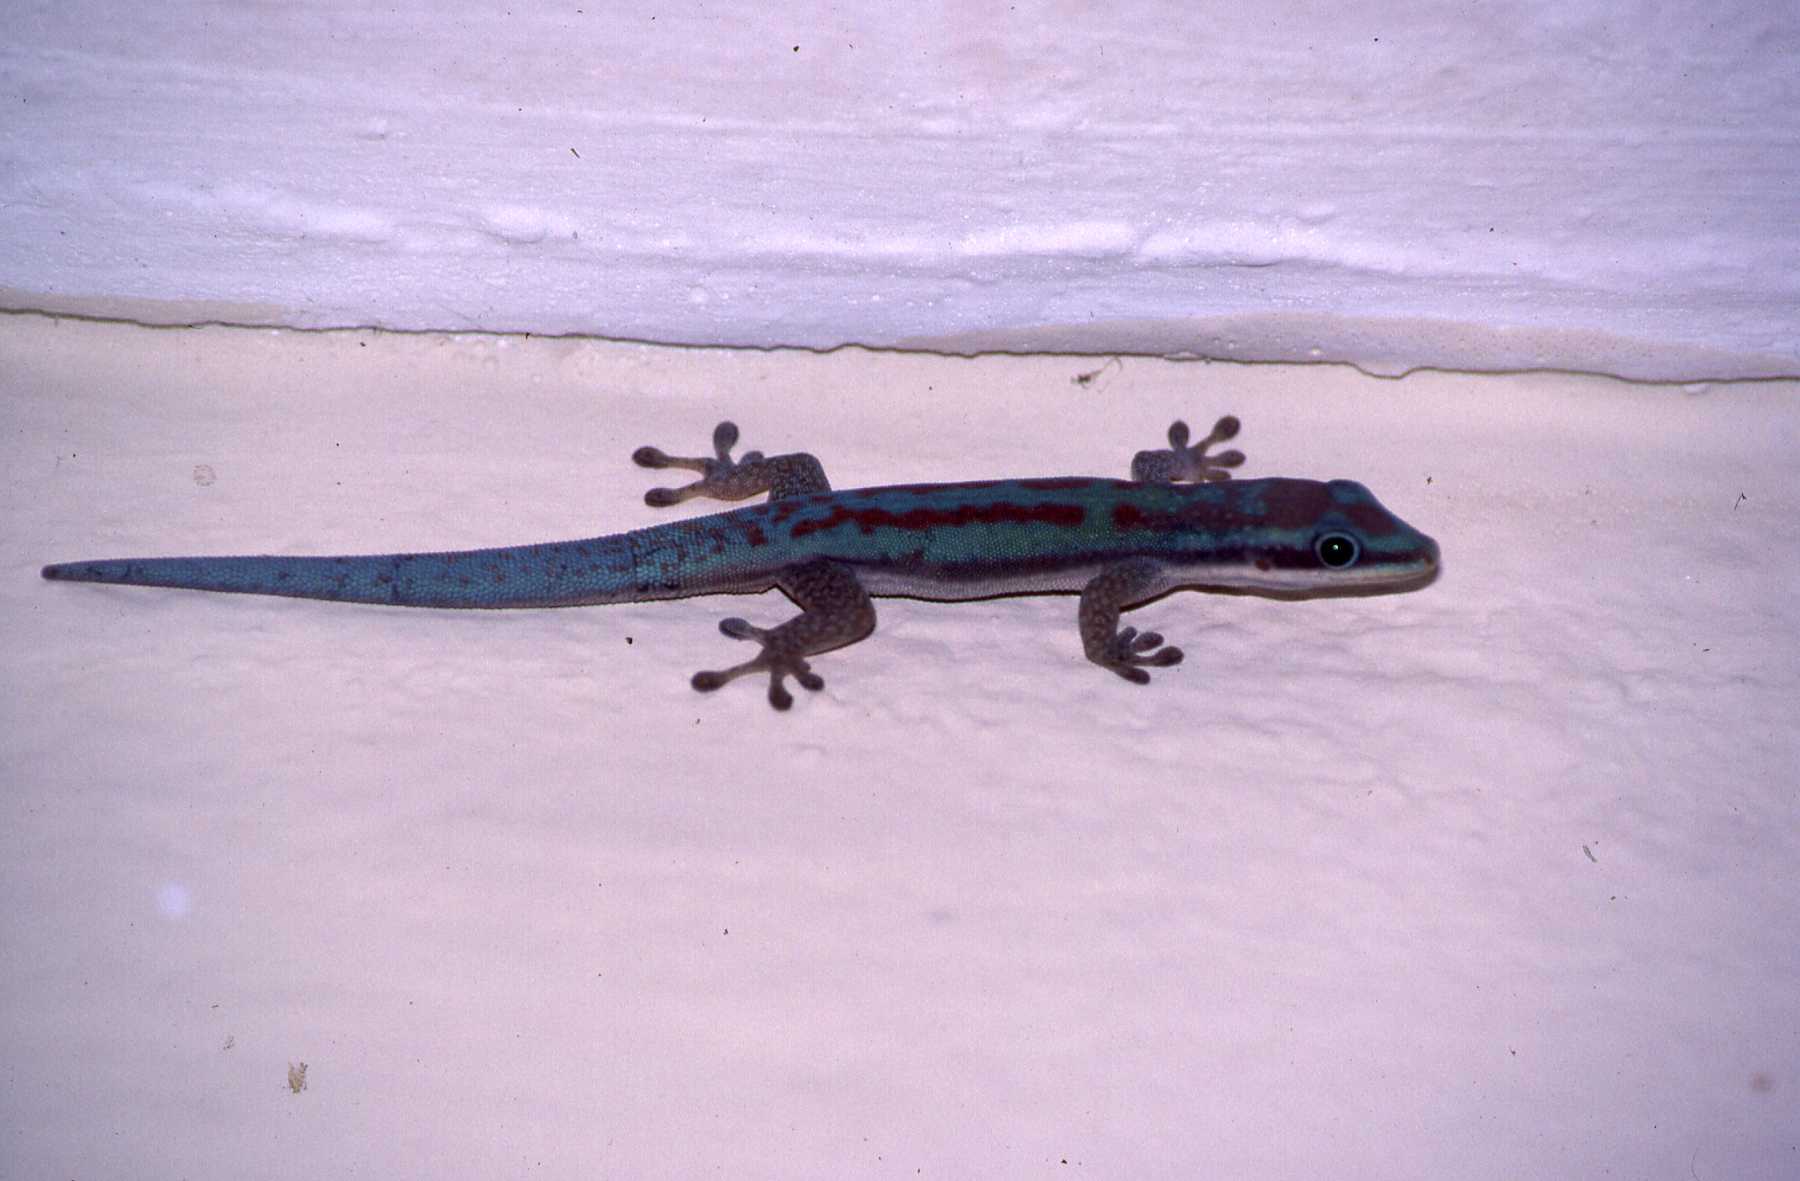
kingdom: Animalia
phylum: Chordata
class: Squamata
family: Gekkonidae
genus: Phelsuma
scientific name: Phelsuma modesta
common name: Modest day gecko
